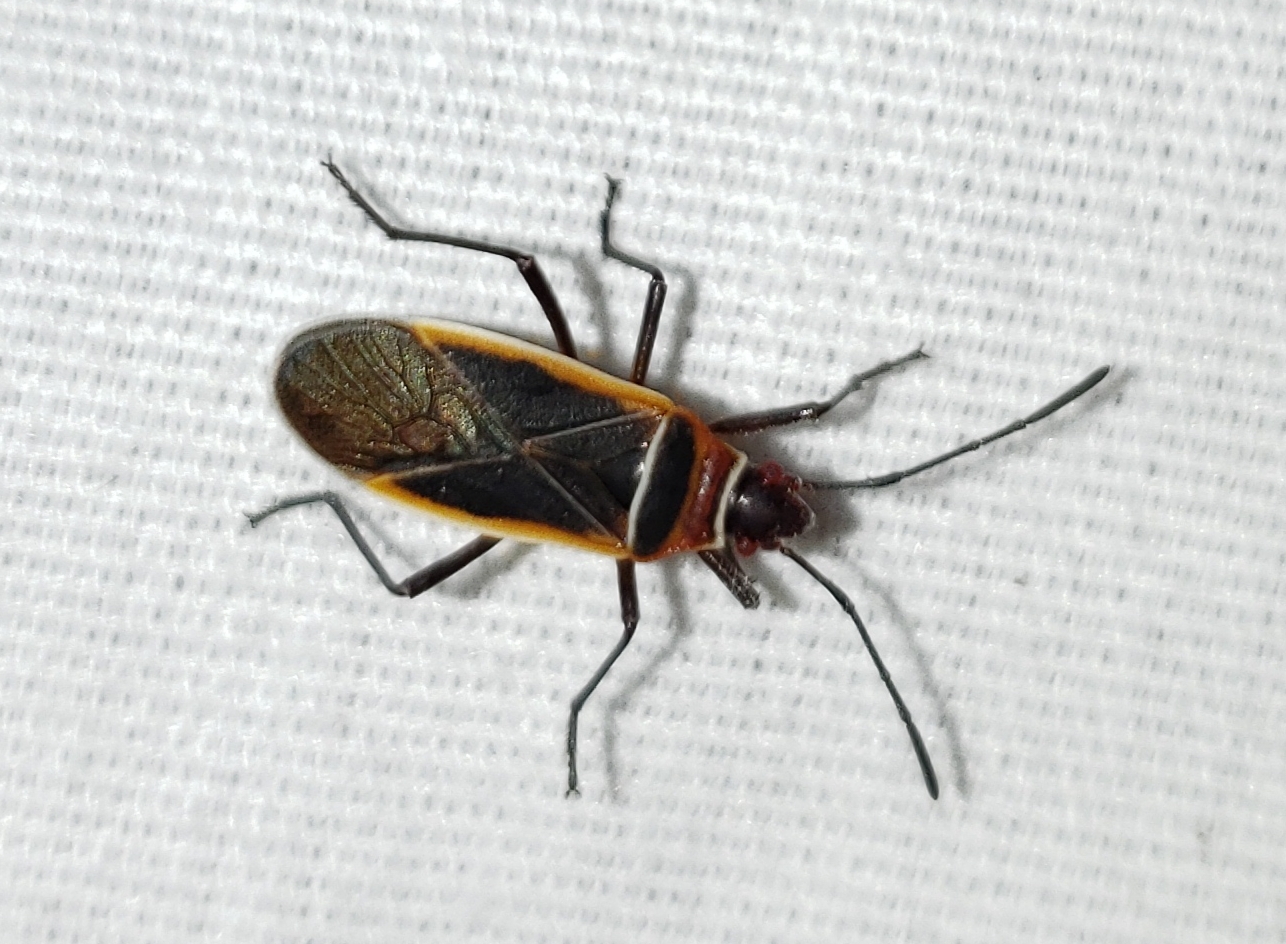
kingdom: Animalia
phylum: Arthropoda
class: Insecta
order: Hemiptera
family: Pyrrhocoridae
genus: Dysdercus
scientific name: Dysdercus mimulus
